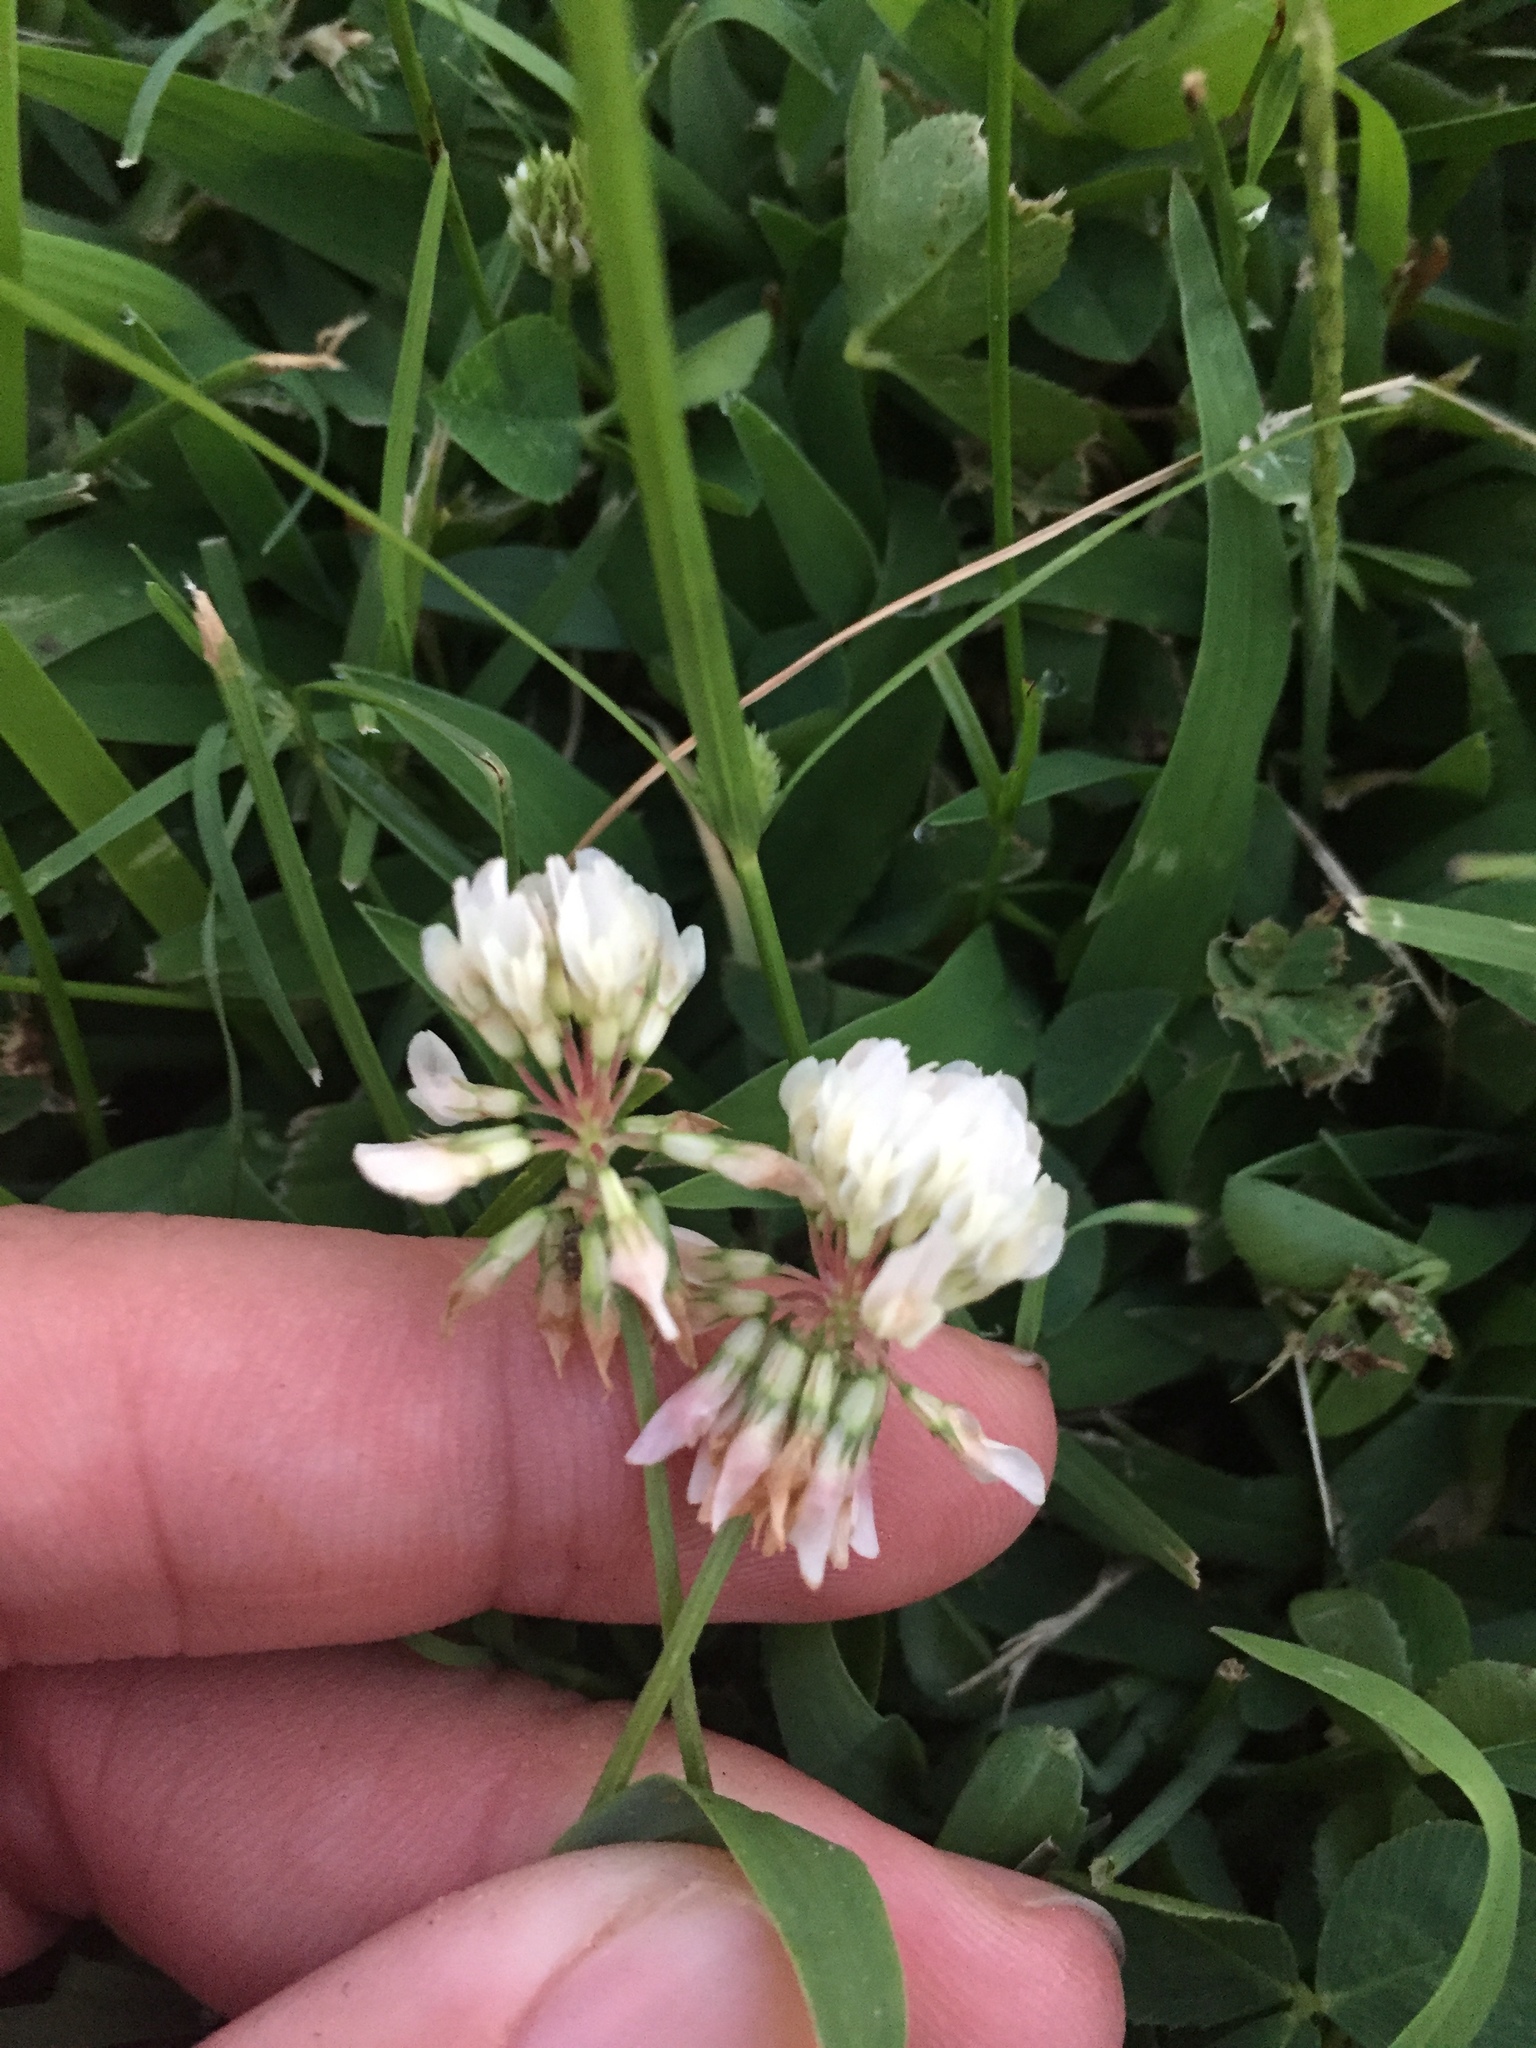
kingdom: Plantae
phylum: Tracheophyta
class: Magnoliopsida
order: Fabales
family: Fabaceae
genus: Trifolium
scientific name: Trifolium repens
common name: White clover
